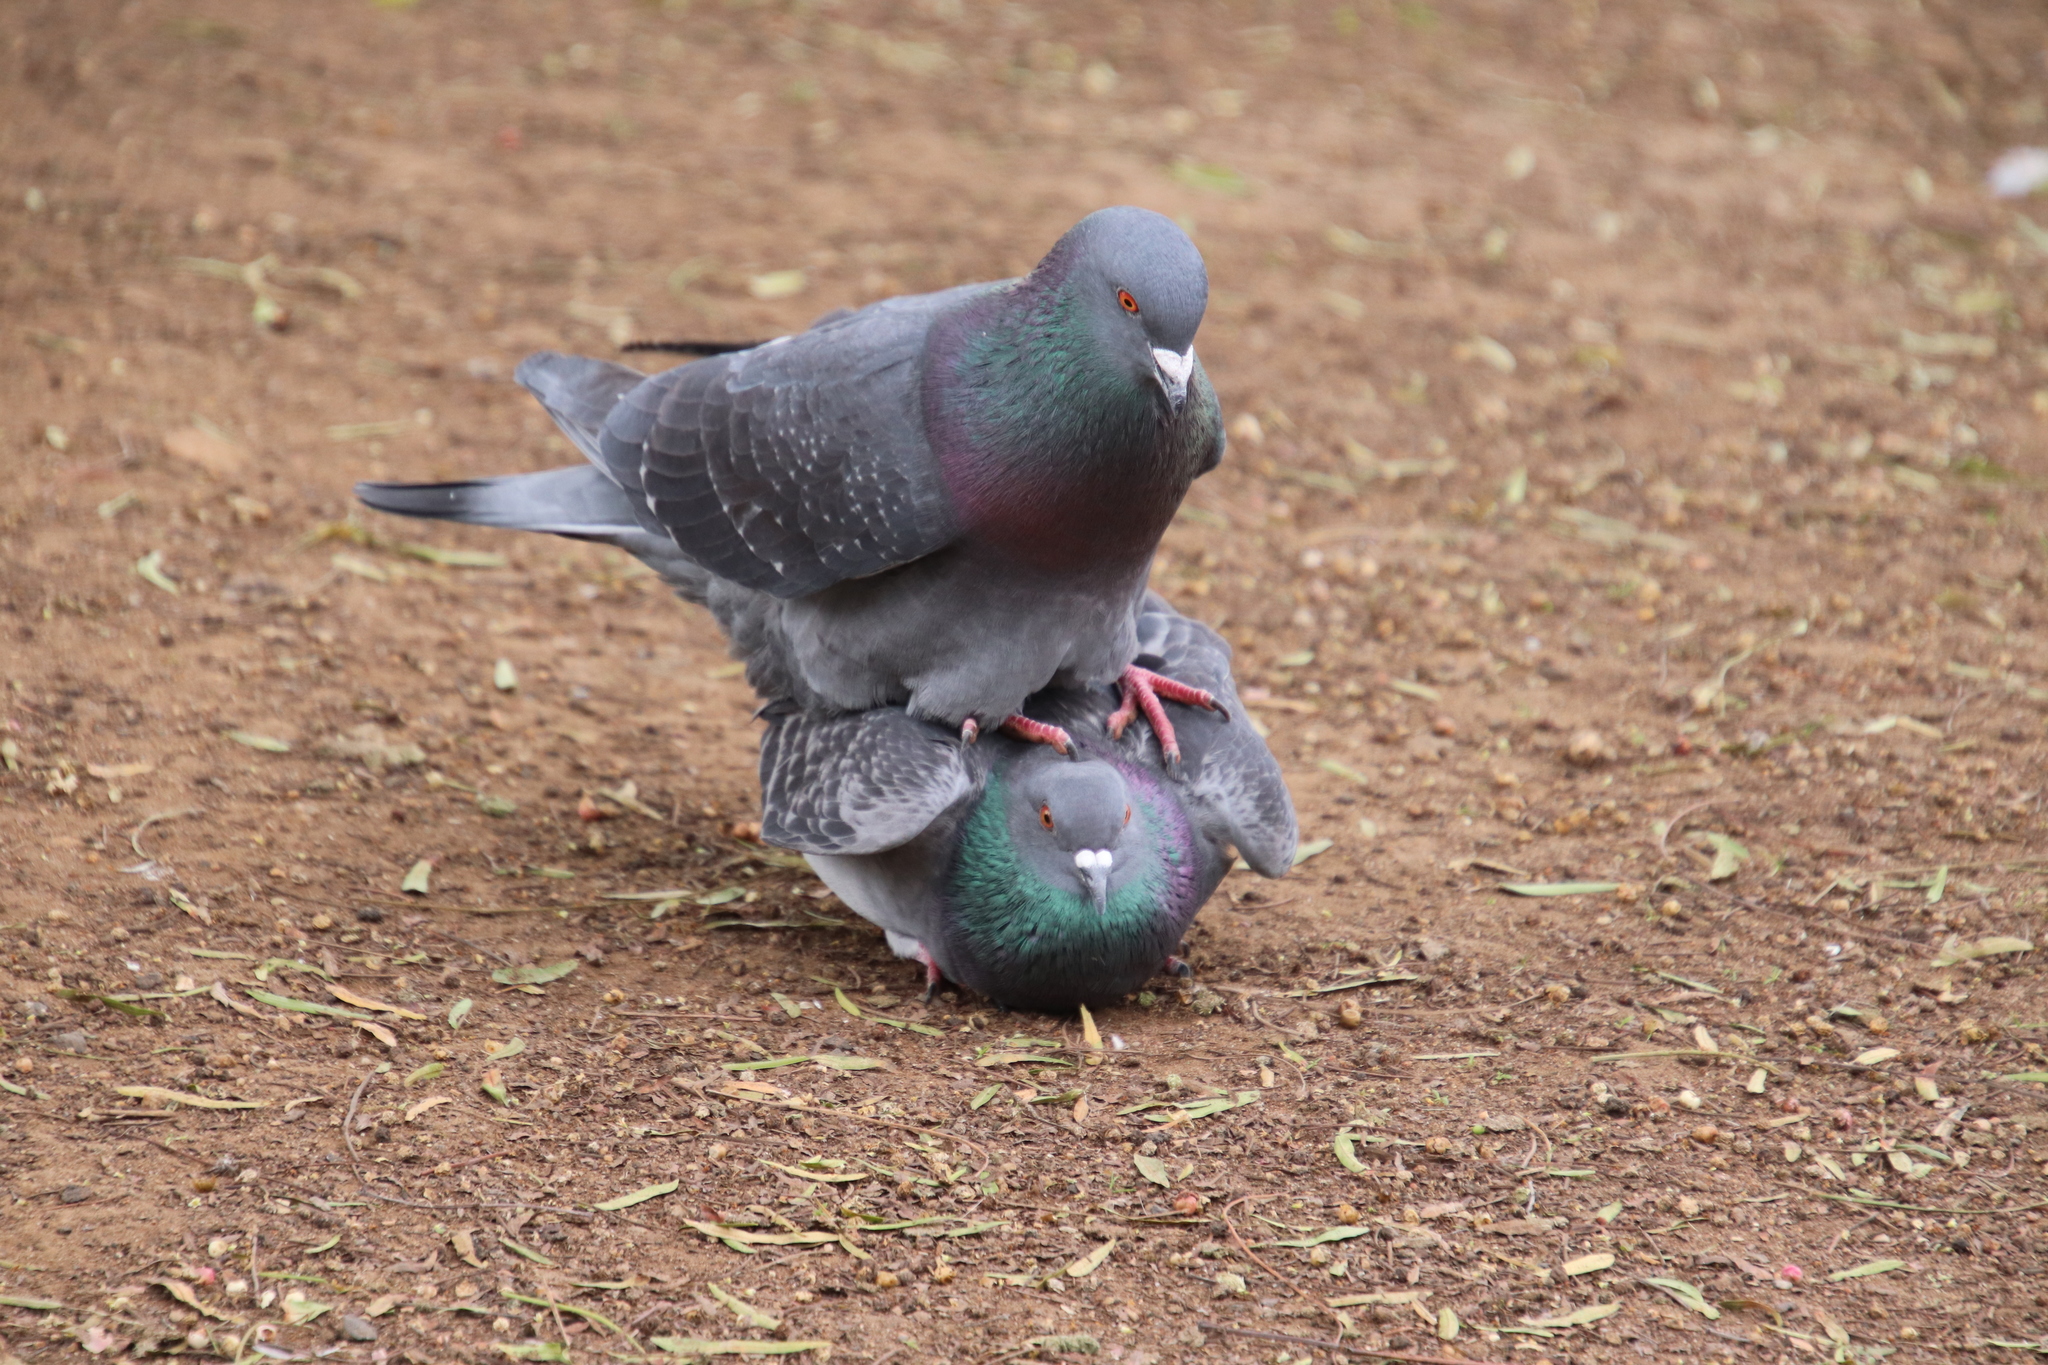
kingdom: Animalia
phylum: Chordata
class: Aves
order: Columbiformes
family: Columbidae
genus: Columba
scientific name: Columba livia
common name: Rock pigeon
